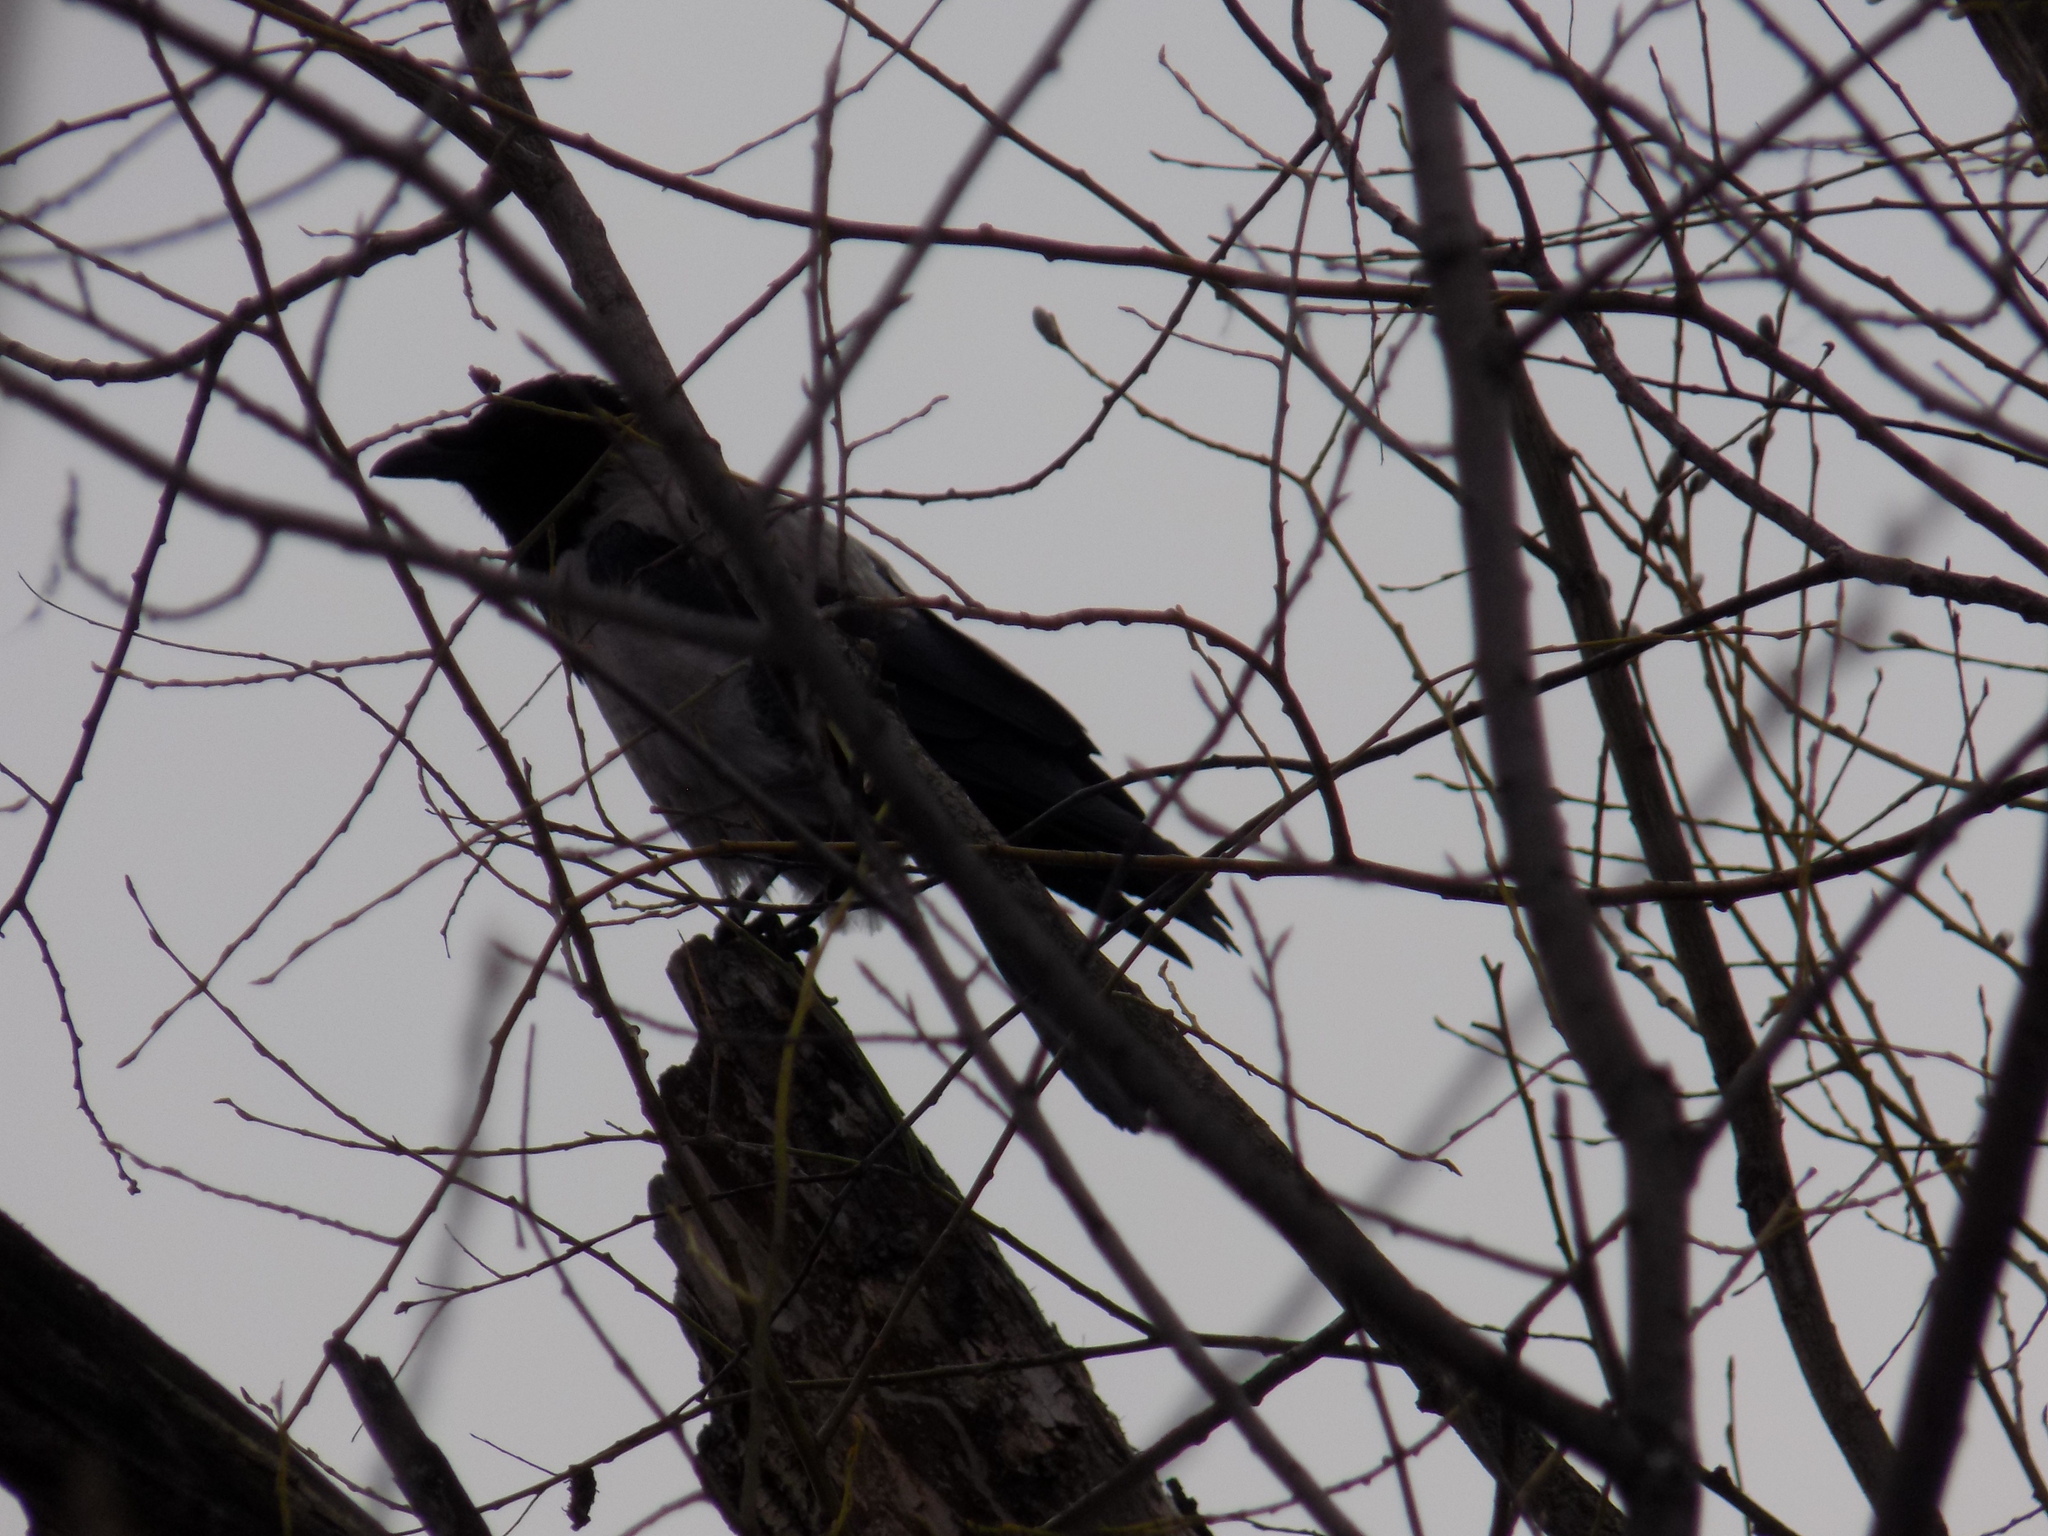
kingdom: Animalia
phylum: Chordata
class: Aves
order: Passeriformes
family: Corvidae
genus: Corvus
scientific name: Corvus cornix
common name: Hooded crow
